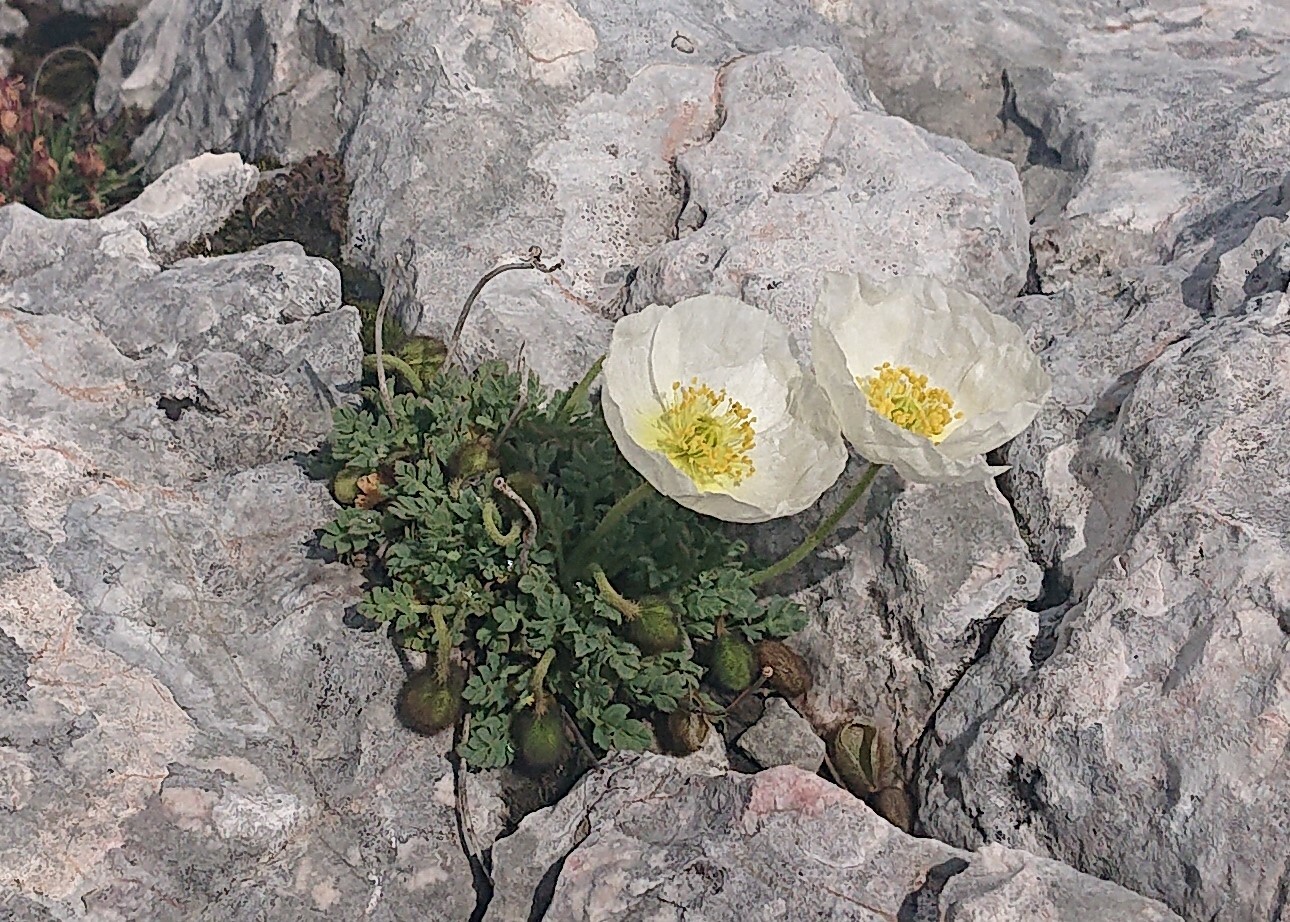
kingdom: Plantae
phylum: Tracheophyta
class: Magnoliopsida
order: Ranunculales
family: Papaveraceae
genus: Papaver
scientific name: Papaver alpinum
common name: Austrian poppy
